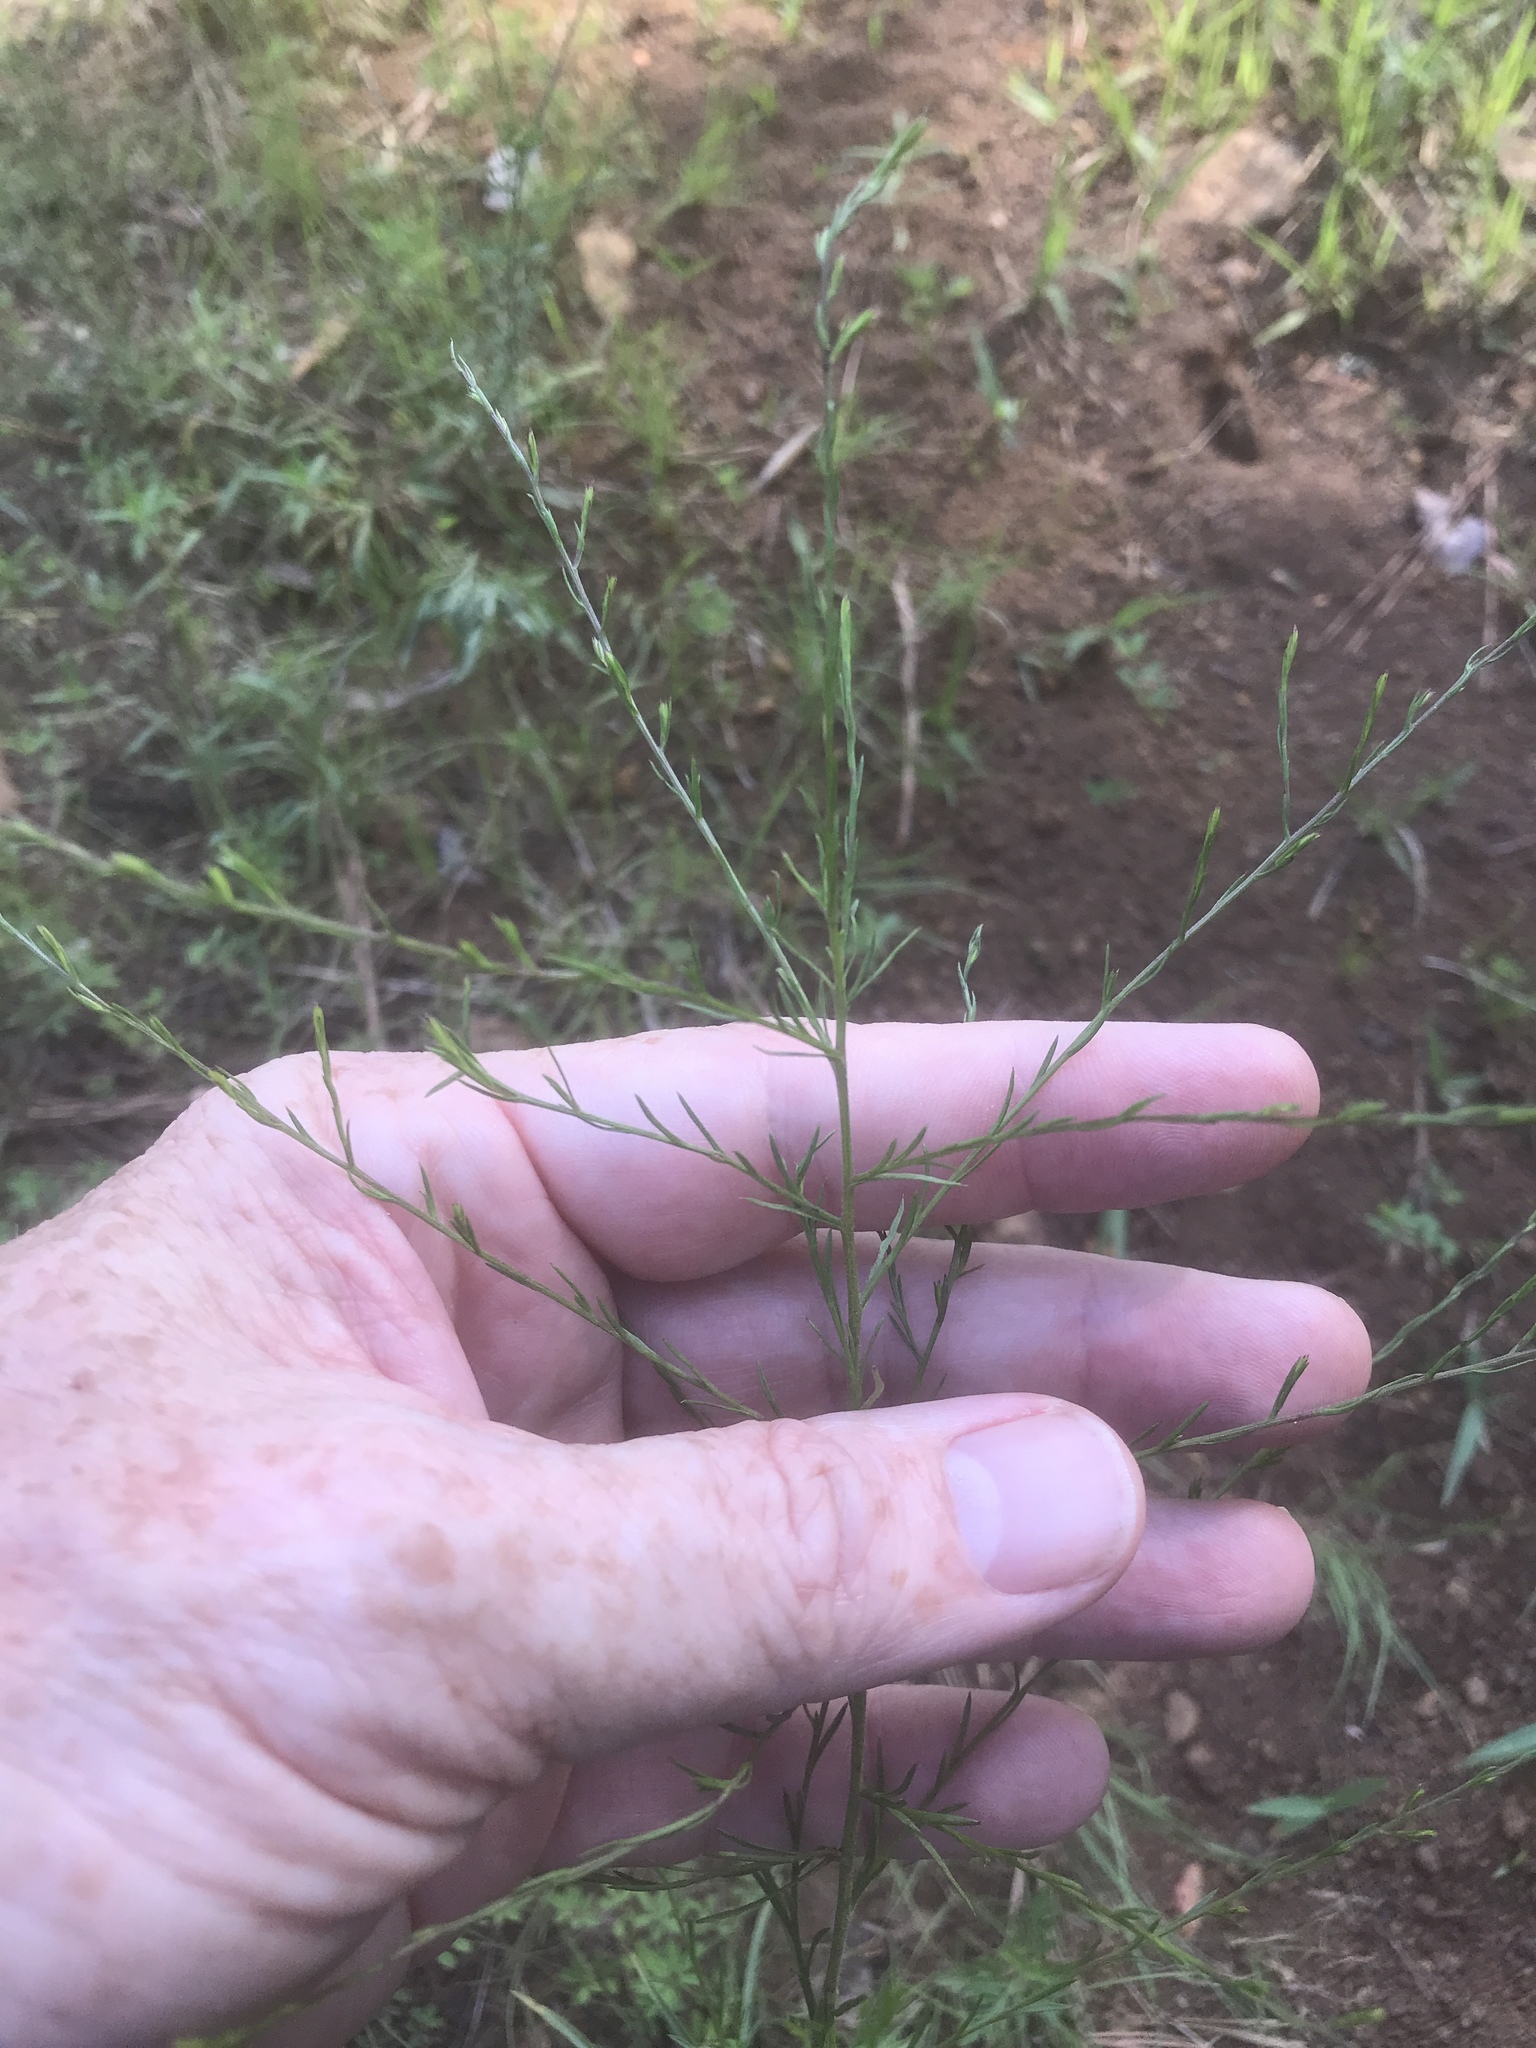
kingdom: Plantae
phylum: Tracheophyta
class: Magnoliopsida
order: Asterales
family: Asteraceae
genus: Symphyotrichum
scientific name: Symphyotrichum depauperatum
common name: Serpentine aster
